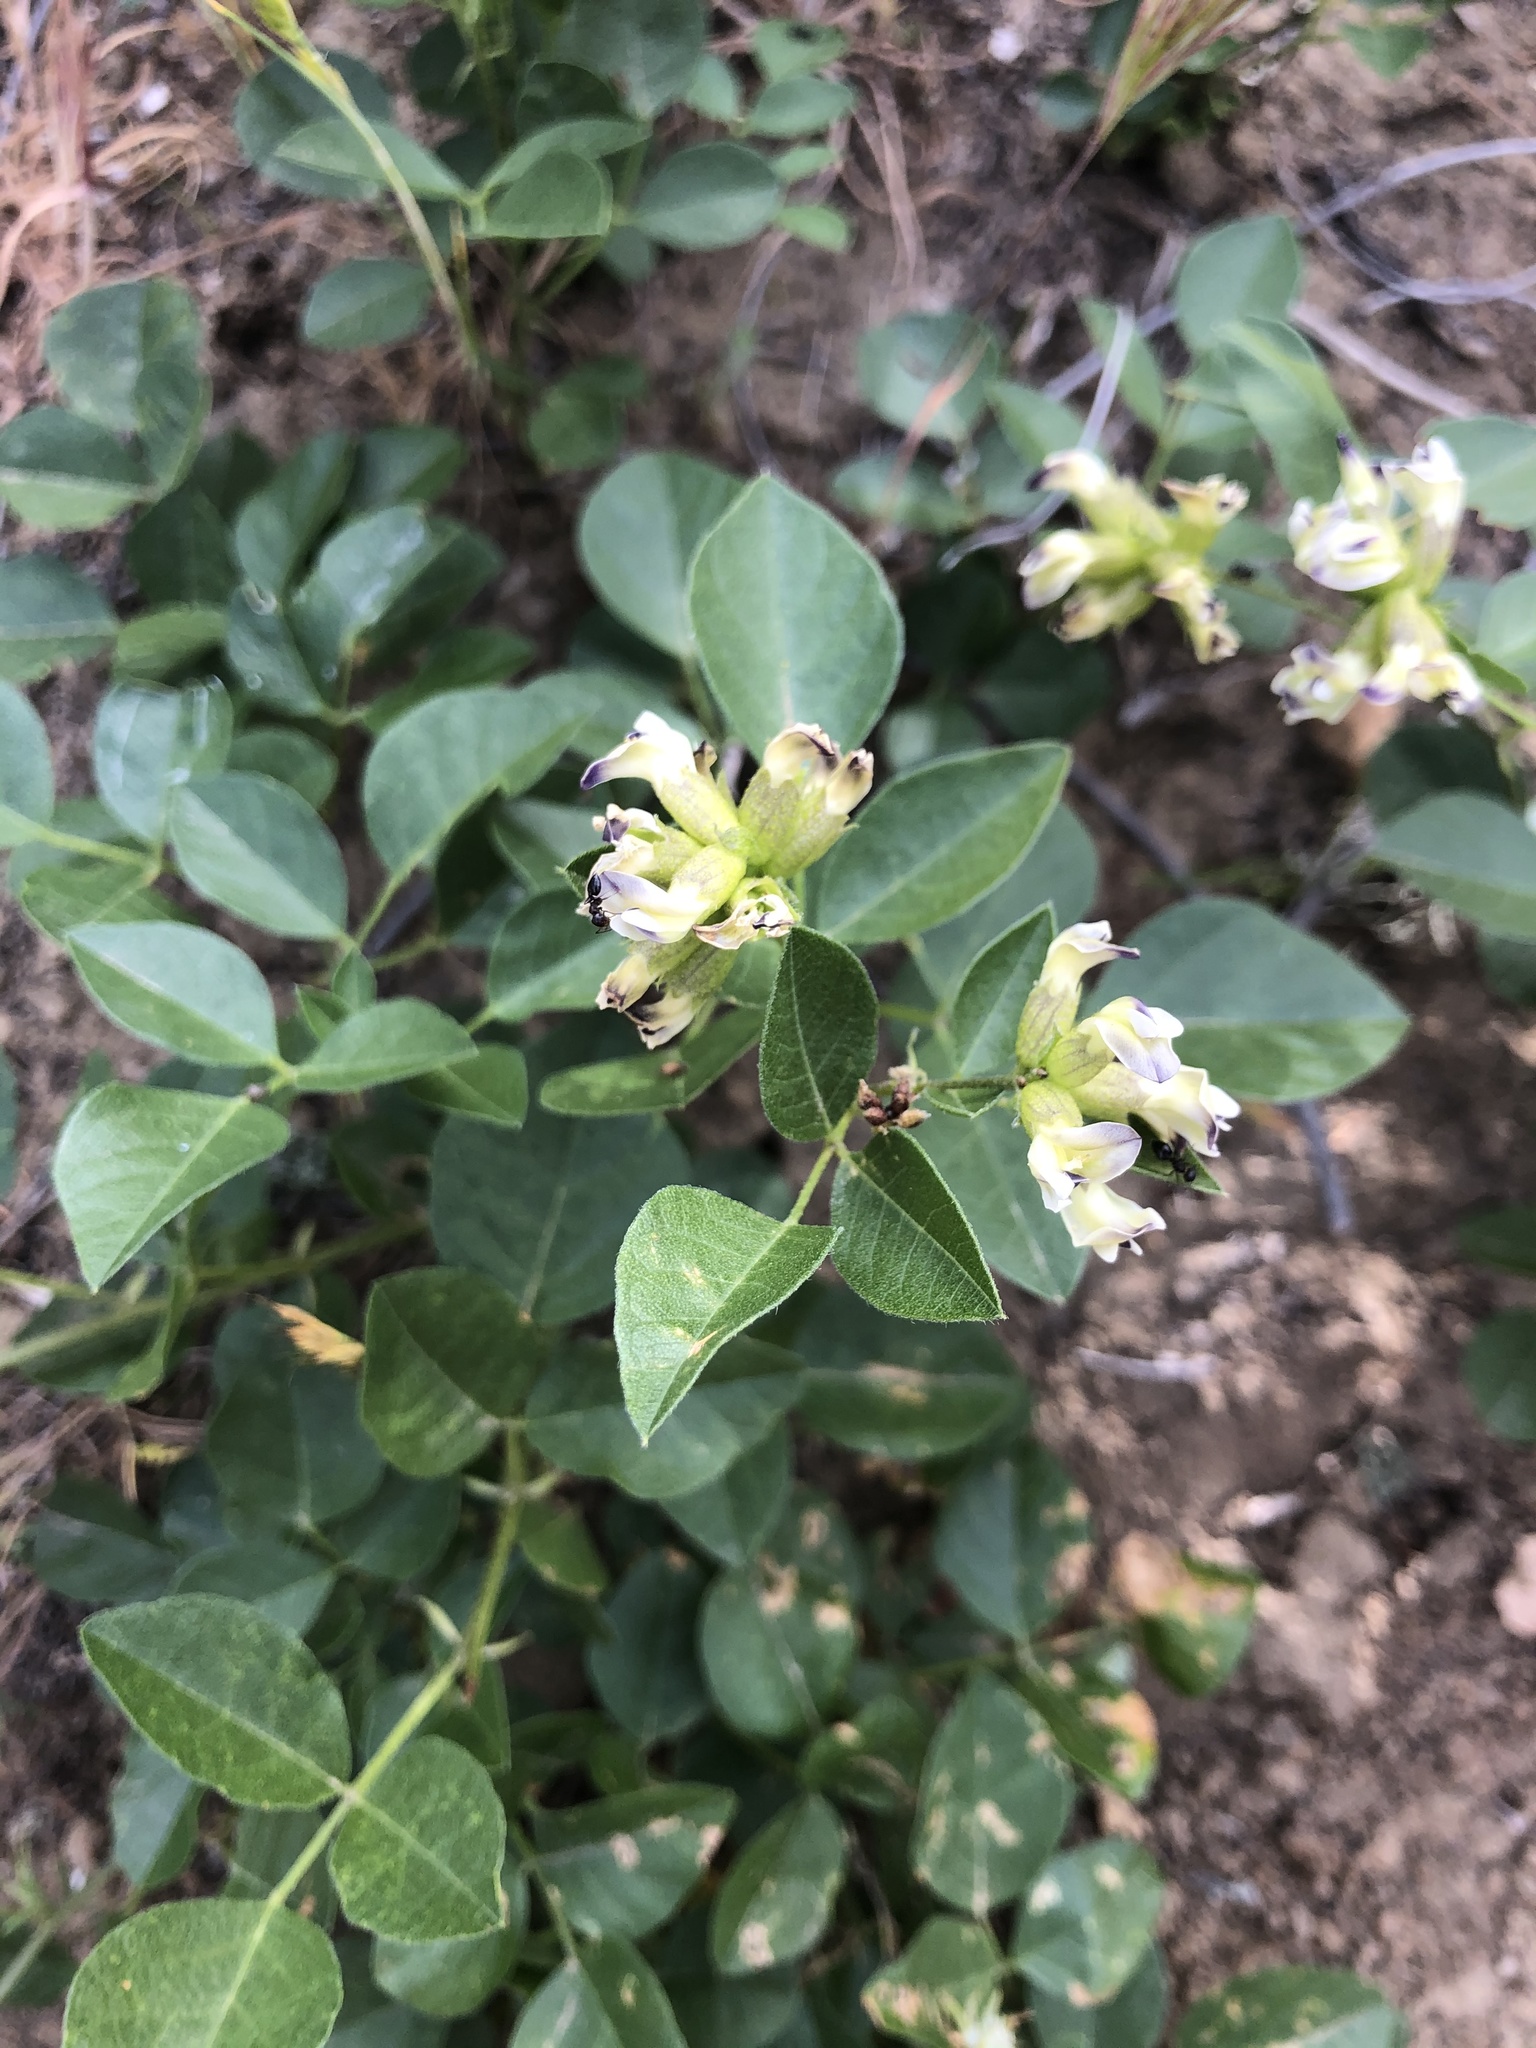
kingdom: Plantae
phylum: Tracheophyta
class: Magnoliopsida
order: Fabales
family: Fabaceae
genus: Rupertia
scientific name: Rupertia physodes
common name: California-tea
